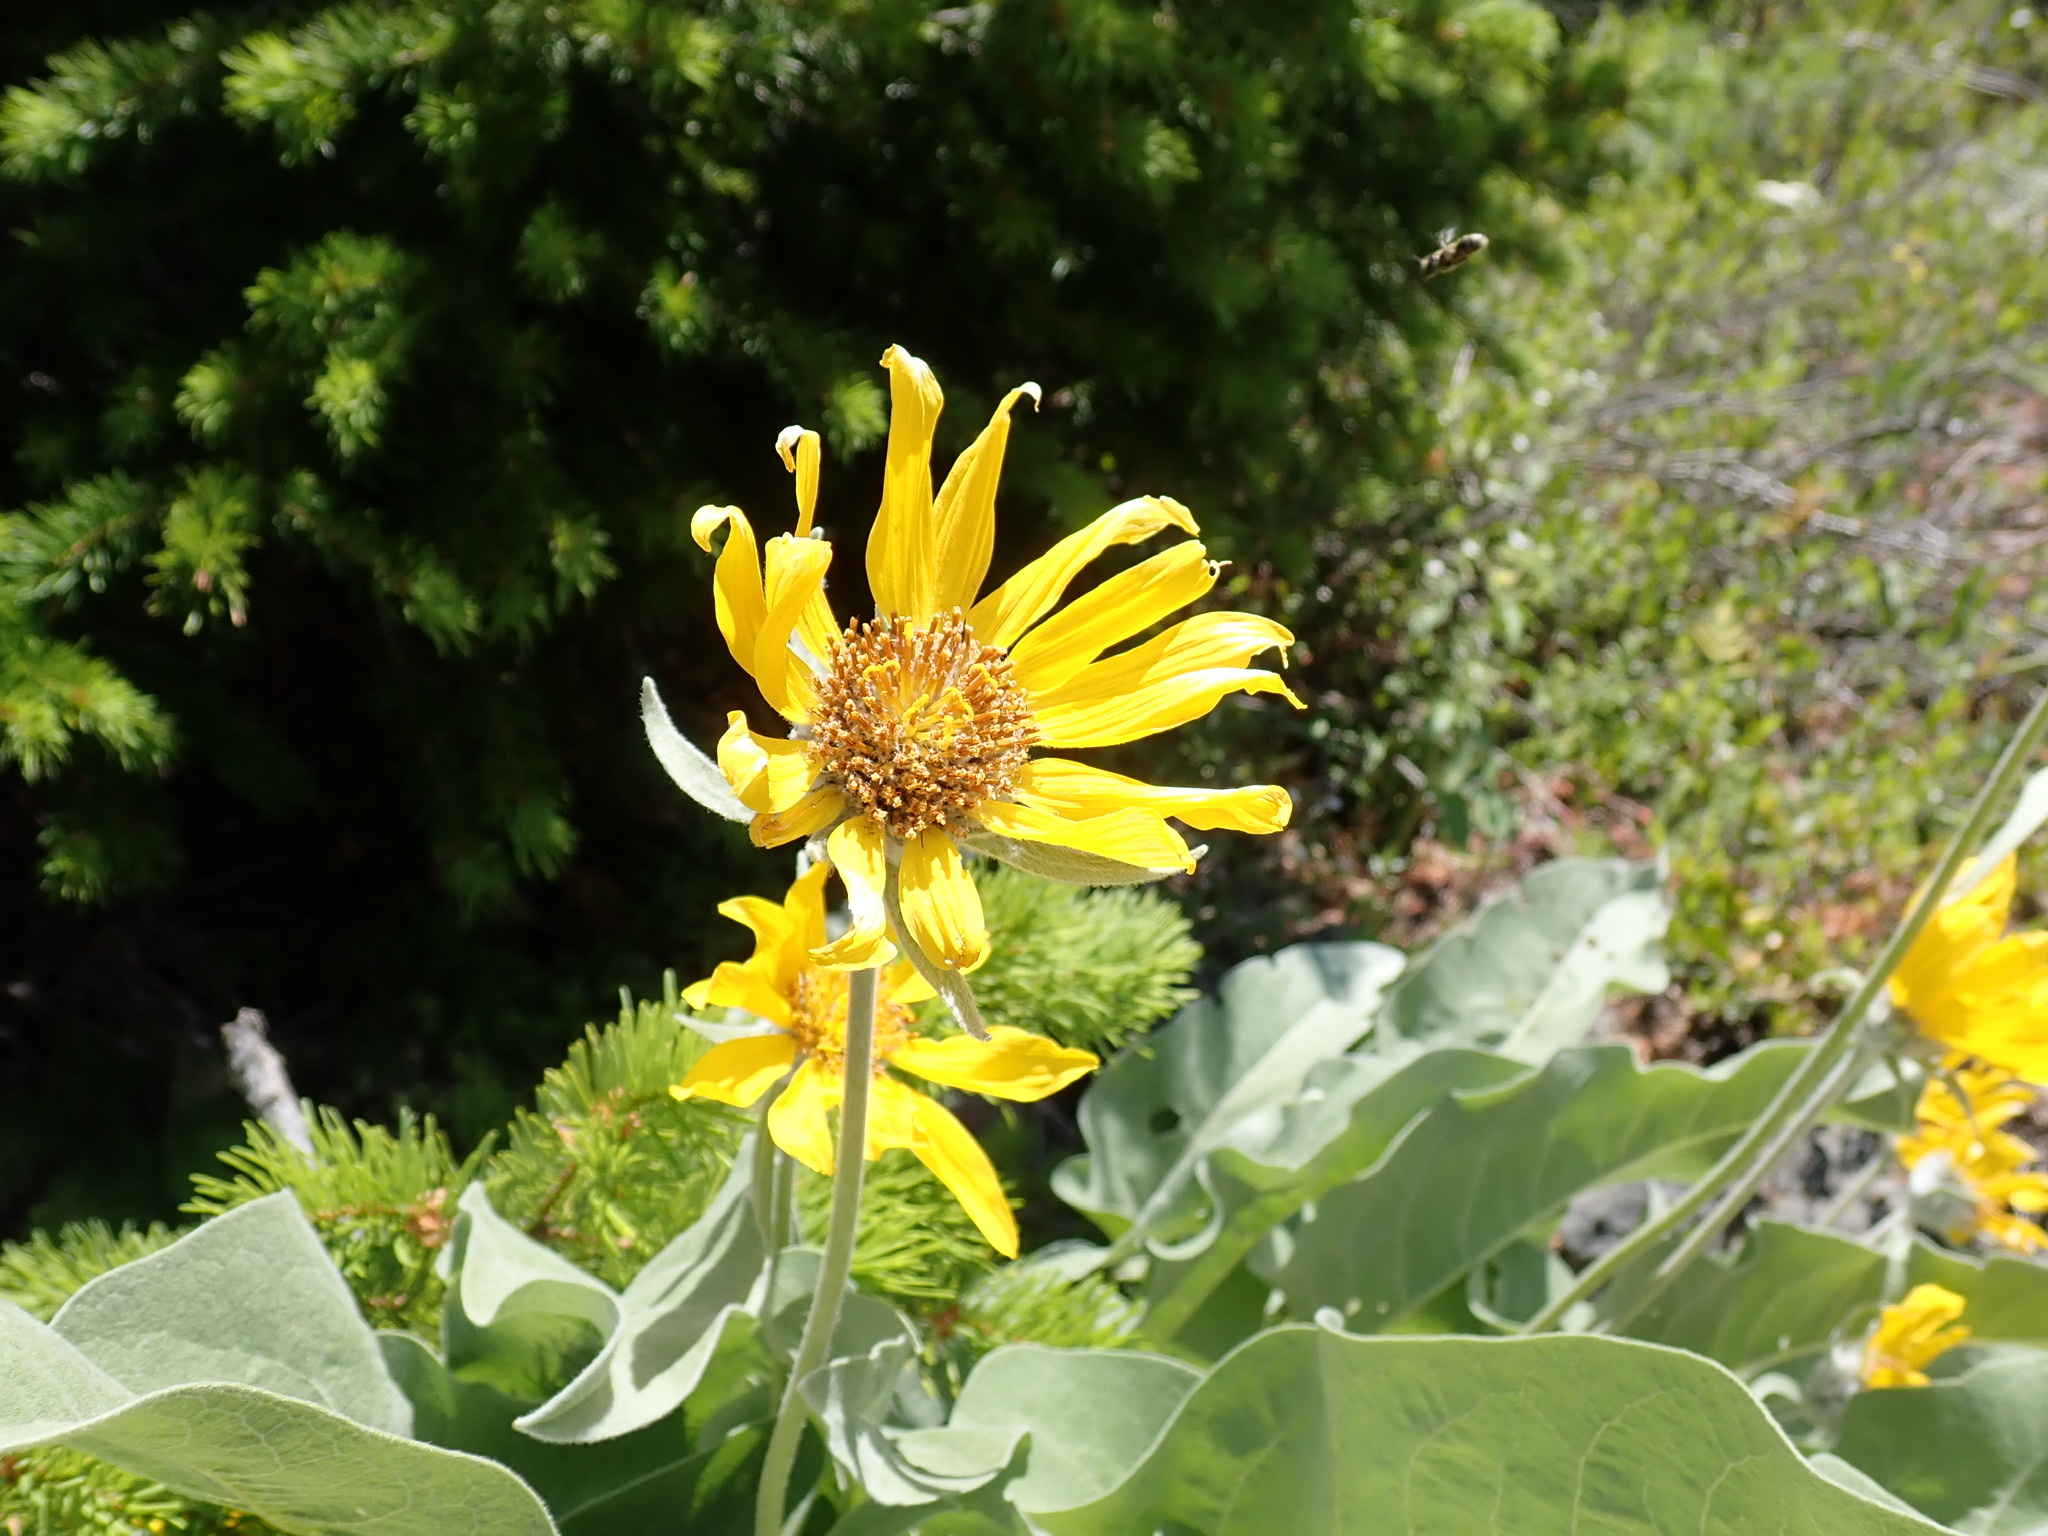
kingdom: Plantae
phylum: Tracheophyta
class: Magnoliopsida
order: Asterales
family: Asteraceae
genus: Wyethia
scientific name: Wyethia sagittata
